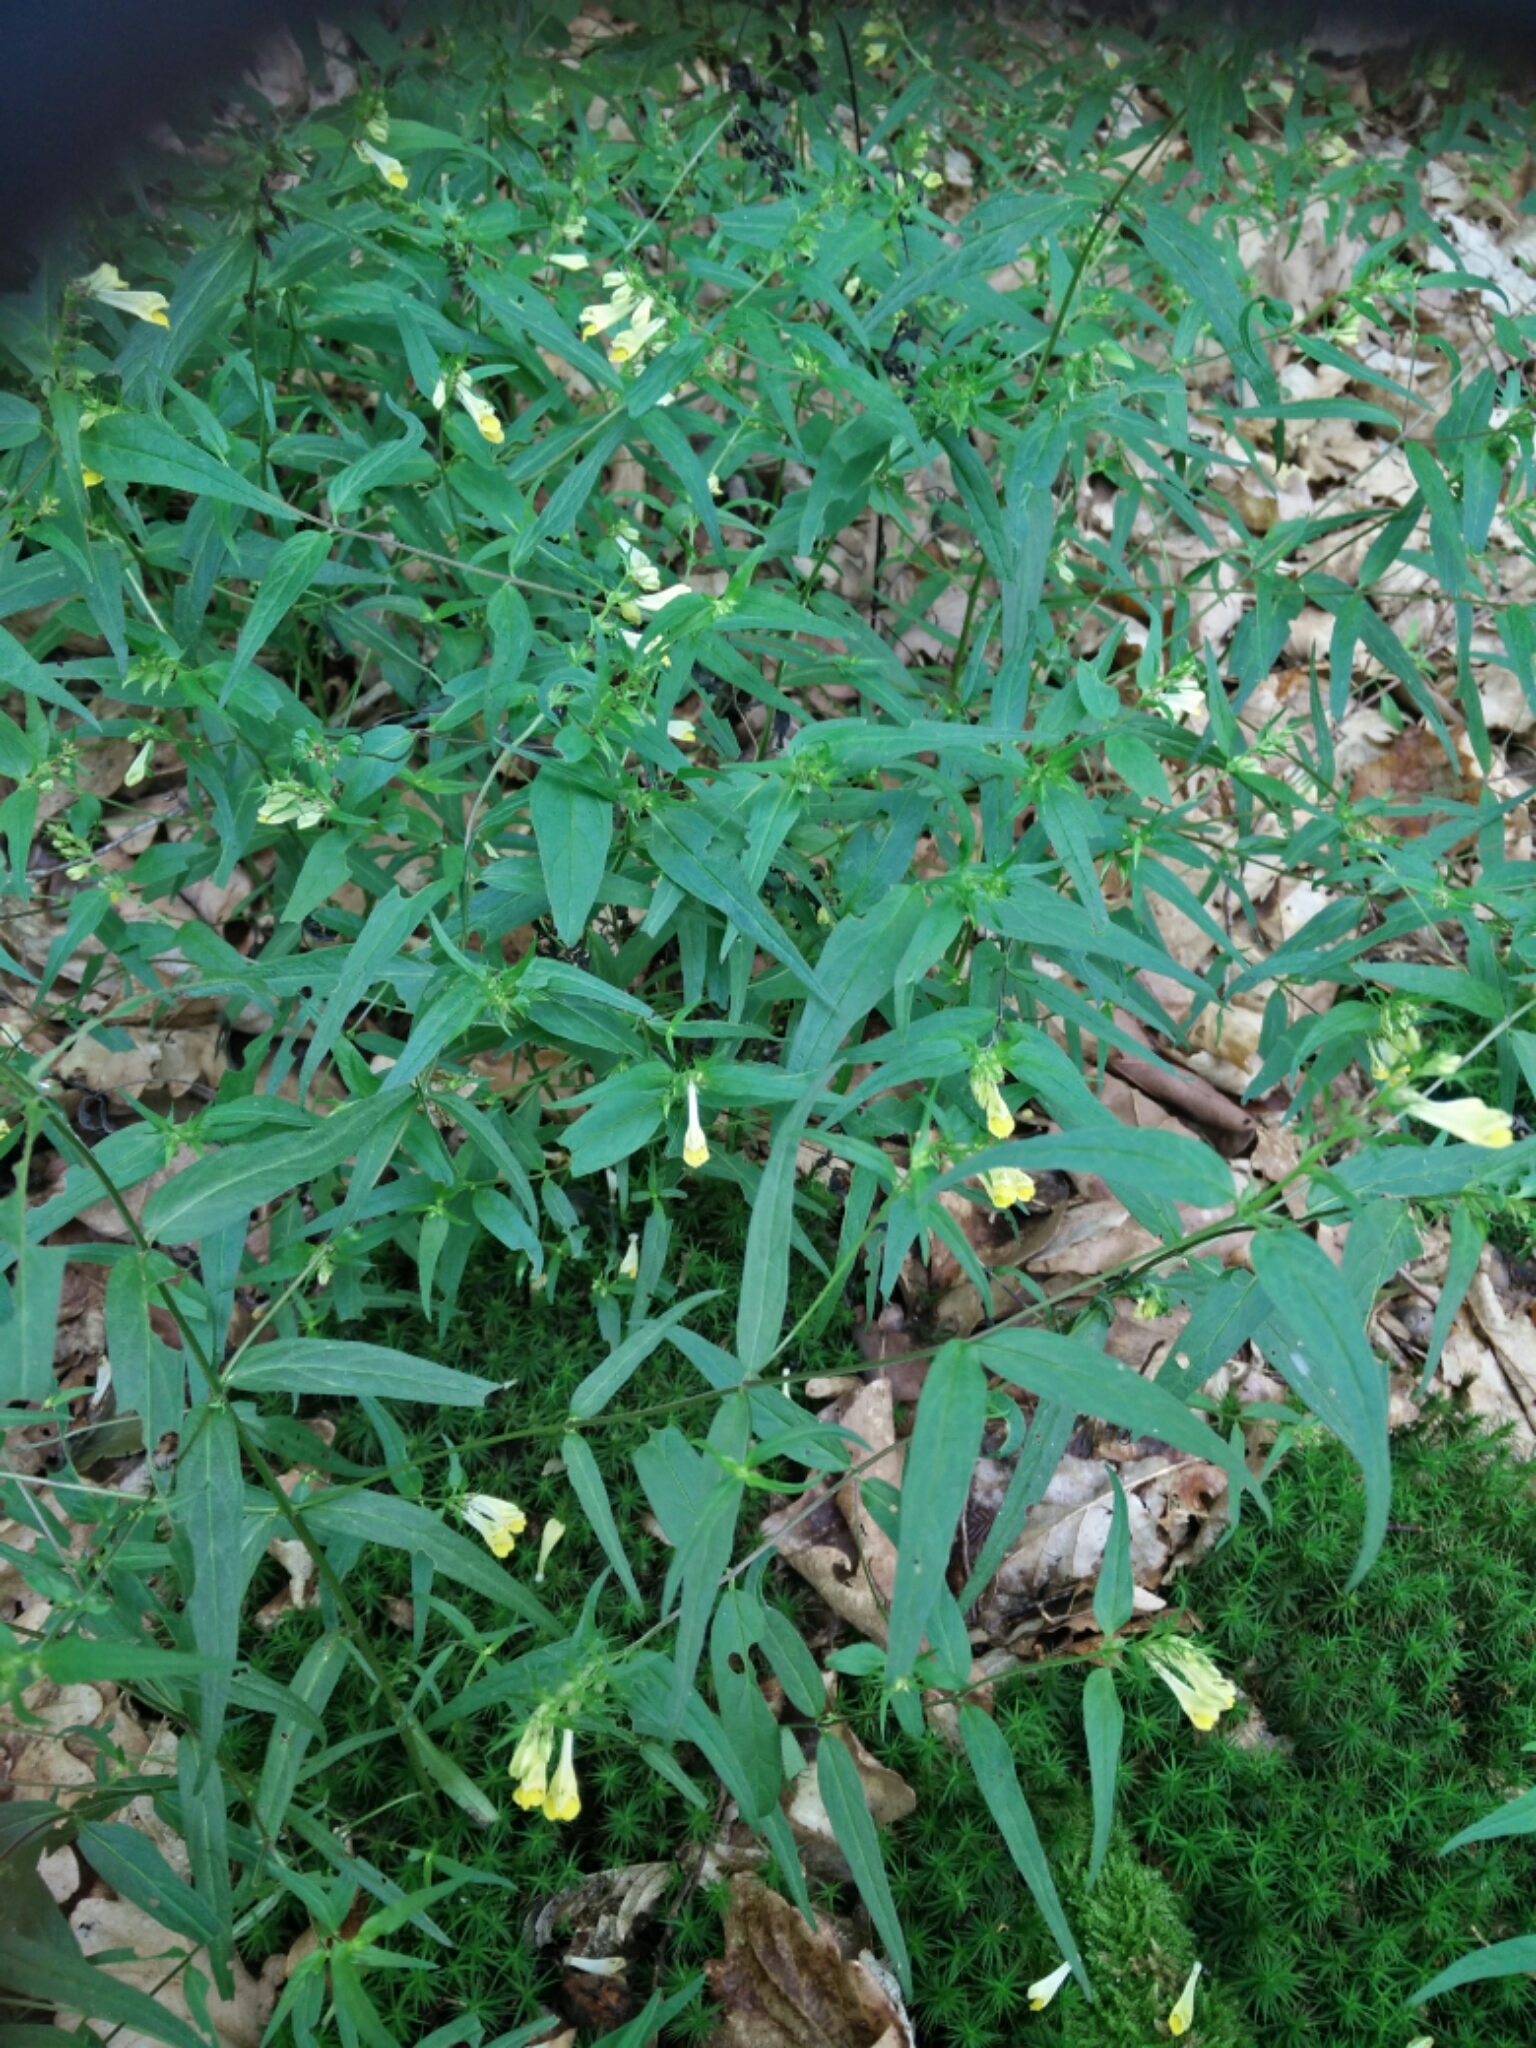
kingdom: Plantae
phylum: Tracheophyta
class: Magnoliopsida
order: Lamiales
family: Orobanchaceae
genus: Melampyrum
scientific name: Melampyrum pratense
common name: Common cow-wheat
